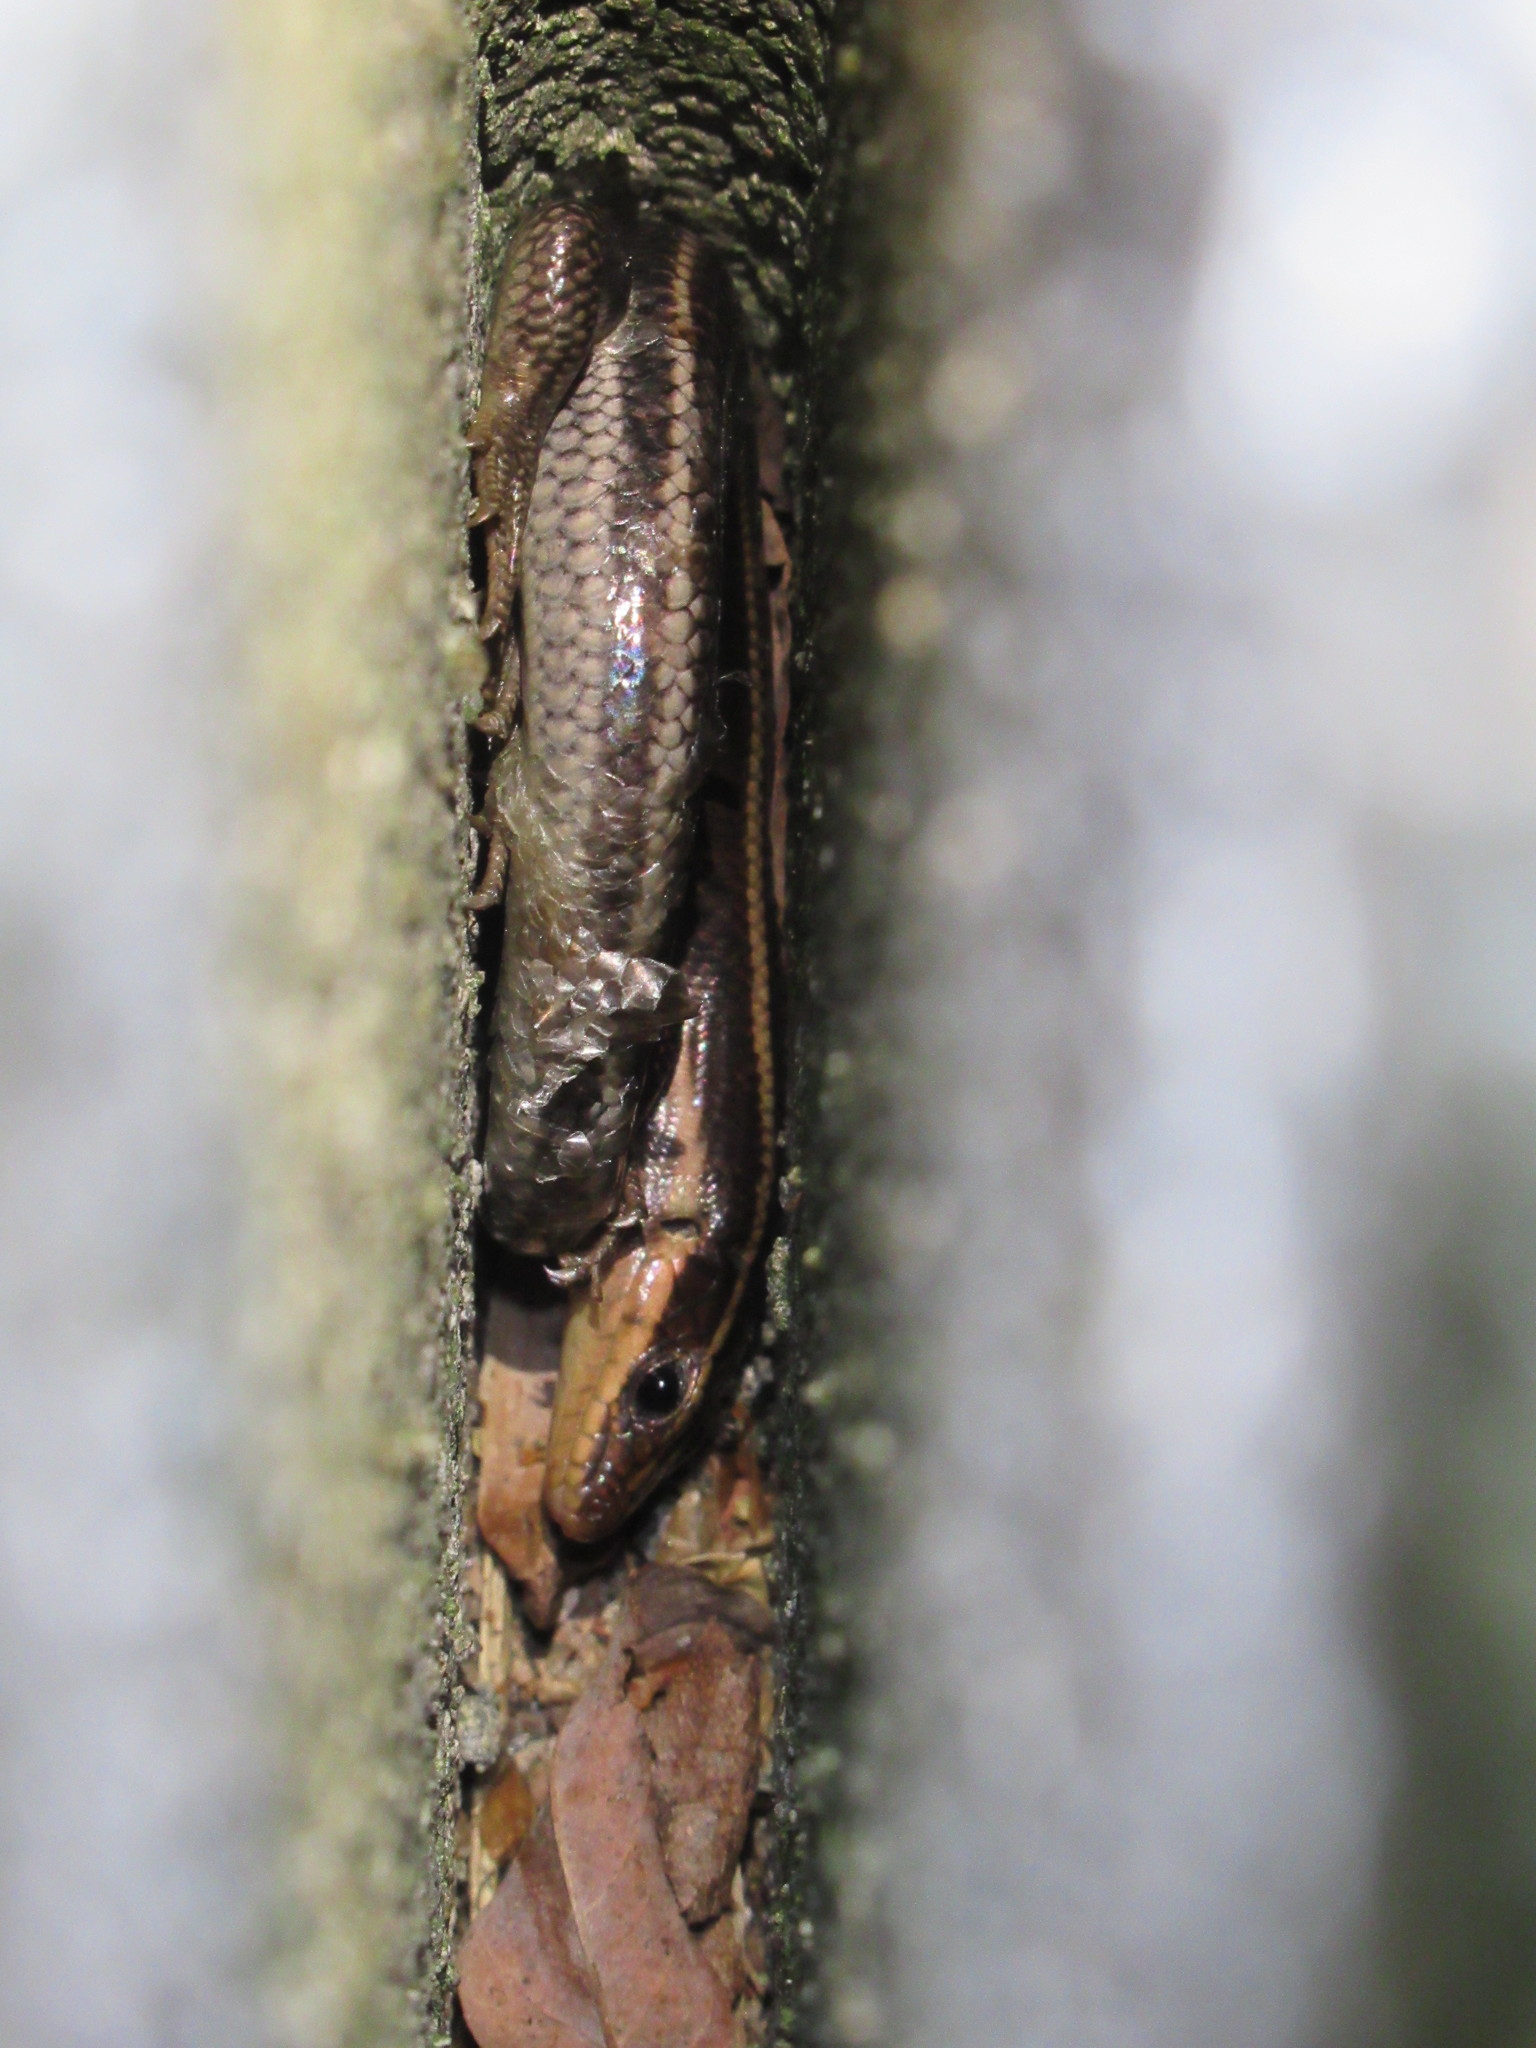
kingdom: Animalia
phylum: Chordata
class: Squamata
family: Scincidae
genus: Plestiodon
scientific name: Plestiodon fasciatus
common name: Five-lined skink
